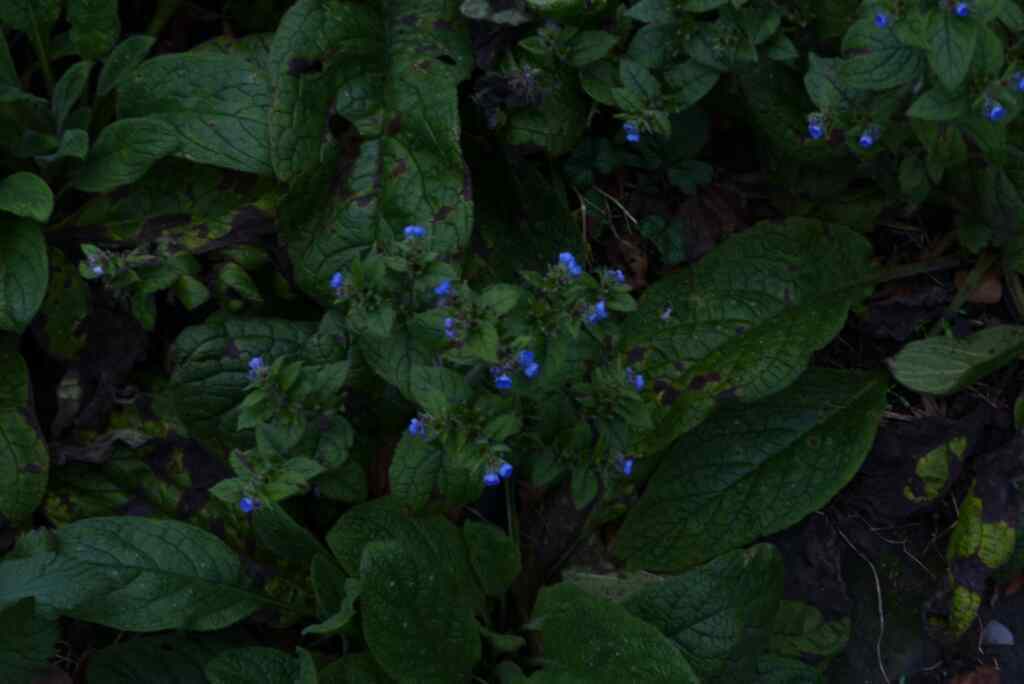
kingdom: Plantae
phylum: Tracheophyta
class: Magnoliopsida
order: Boraginales
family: Boraginaceae
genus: Pentaglottis
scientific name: Pentaglottis sempervirens
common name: Green alkanet
